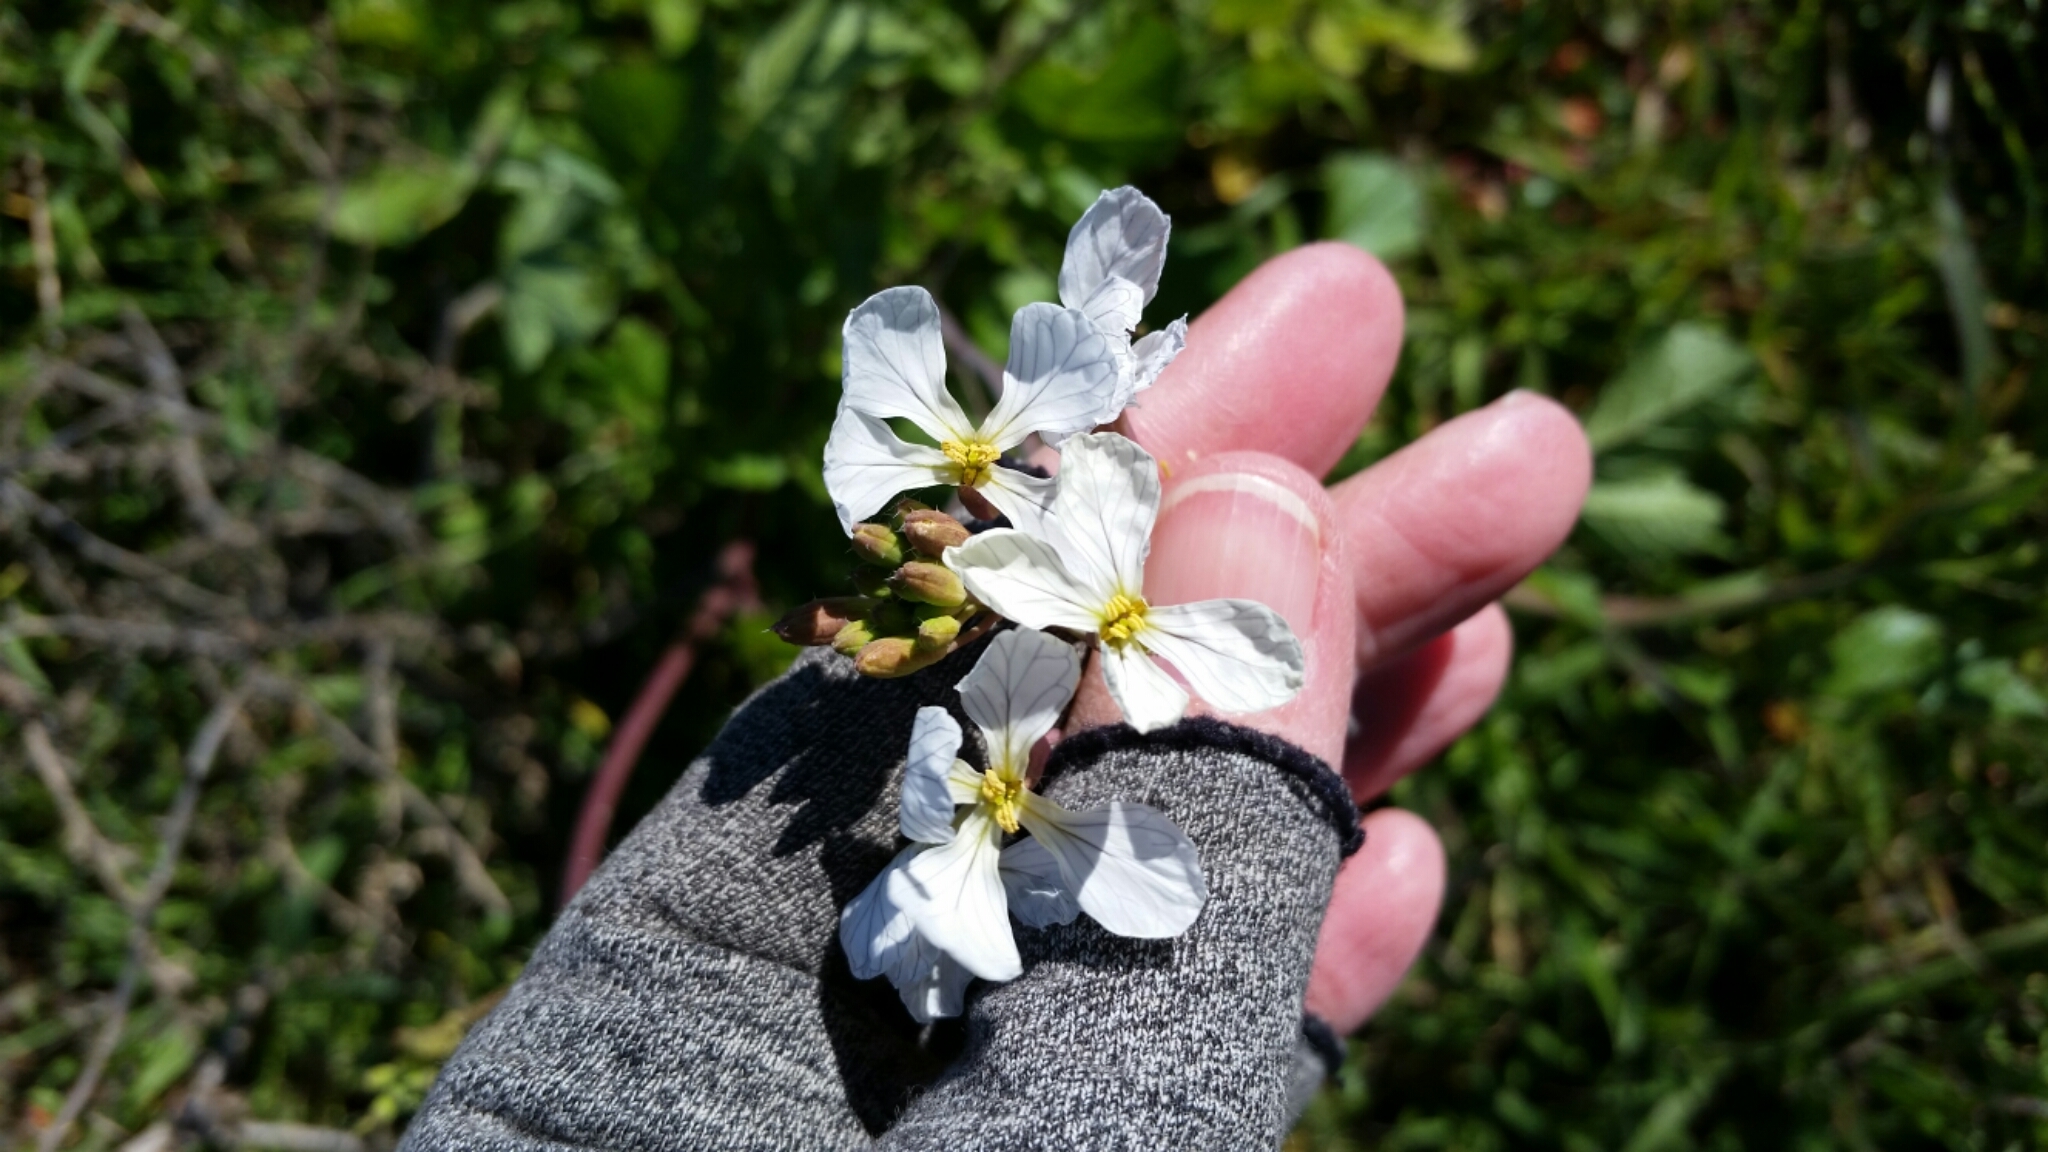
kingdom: Plantae
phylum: Tracheophyta
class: Magnoliopsida
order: Brassicales
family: Brassicaceae
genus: Raphanus
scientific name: Raphanus sativus
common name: Cultivated radish
